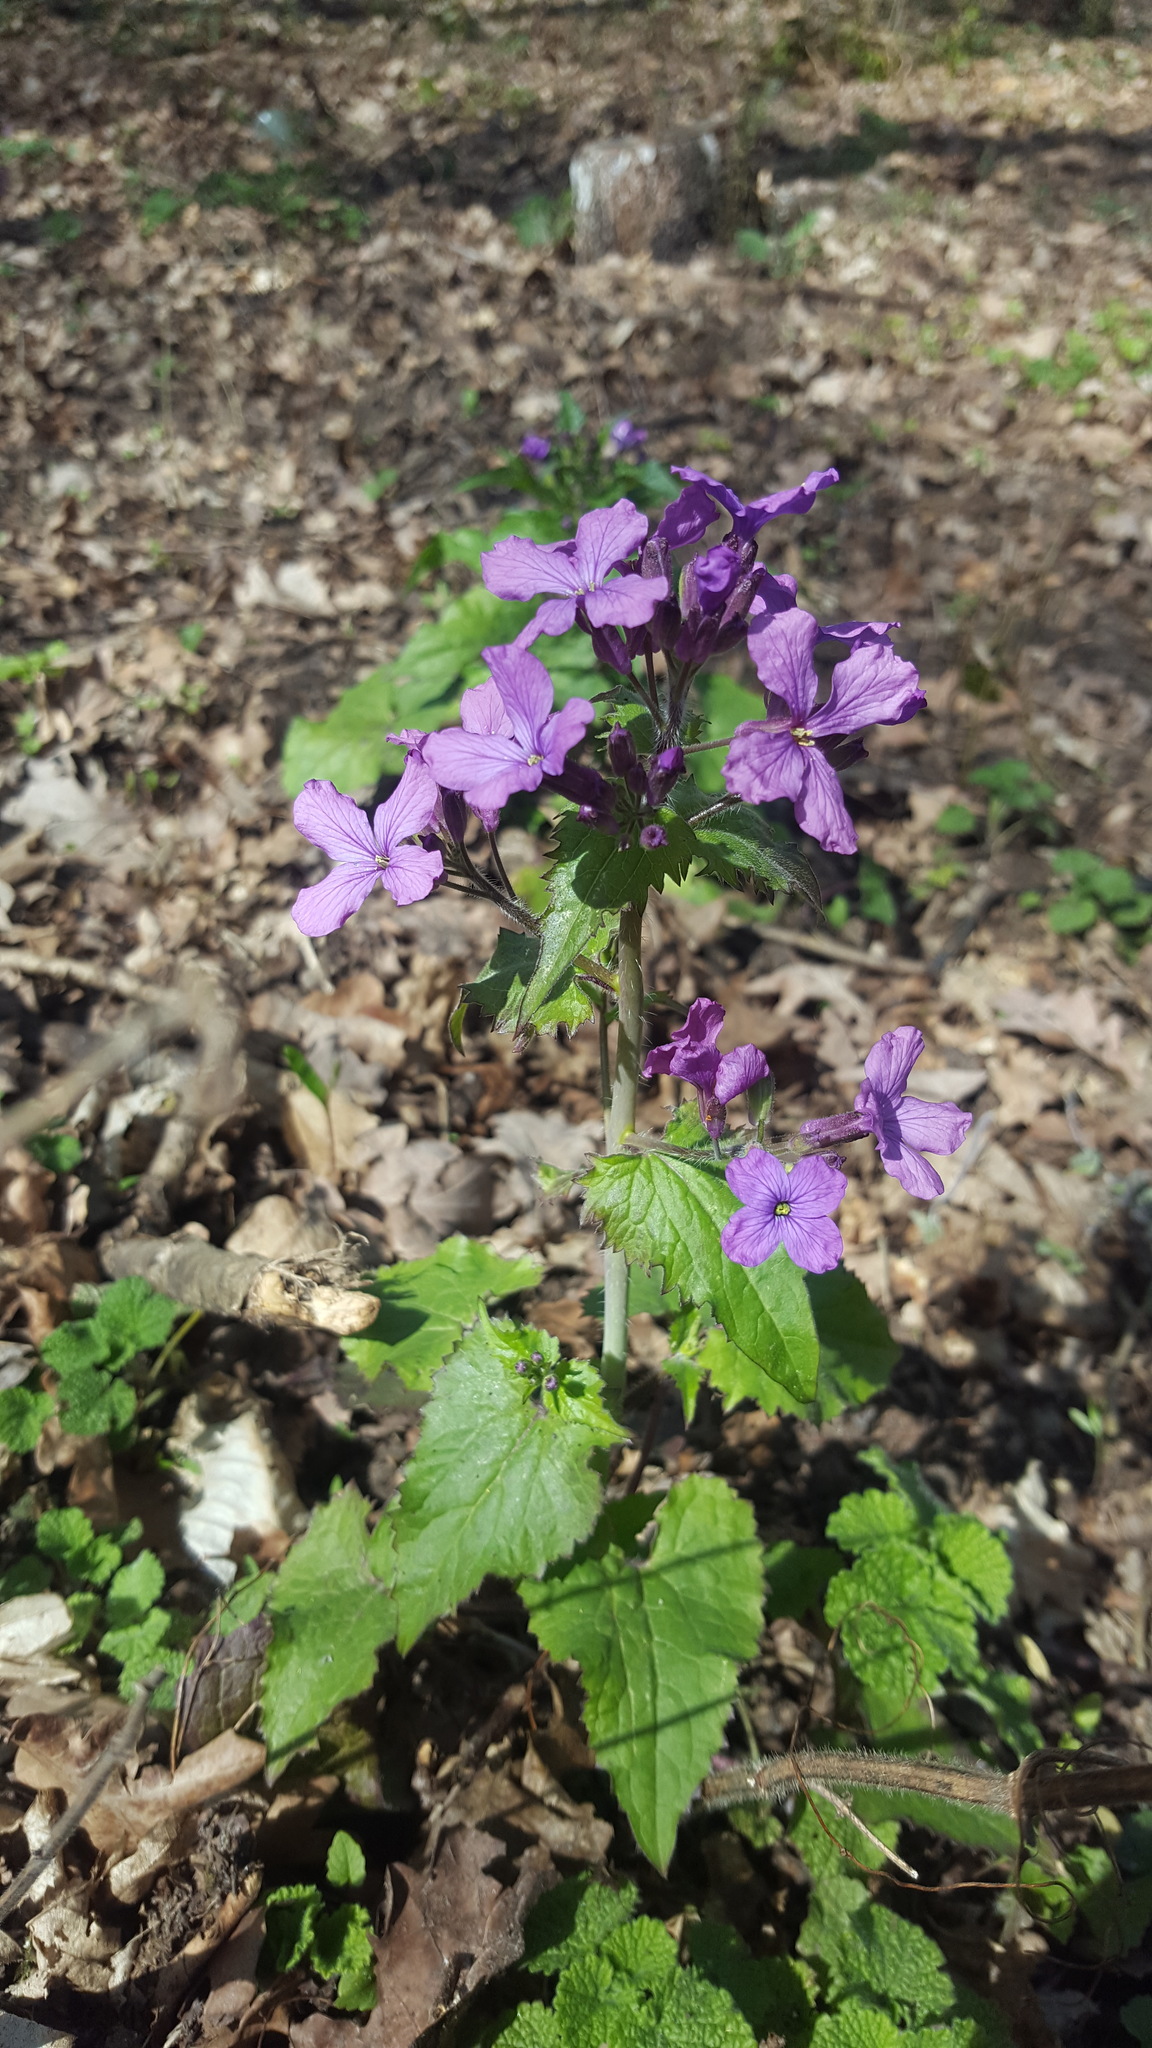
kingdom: Plantae
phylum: Tracheophyta
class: Magnoliopsida
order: Brassicales
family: Brassicaceae
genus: Lunaria
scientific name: Lunaria annua
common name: Honesty
